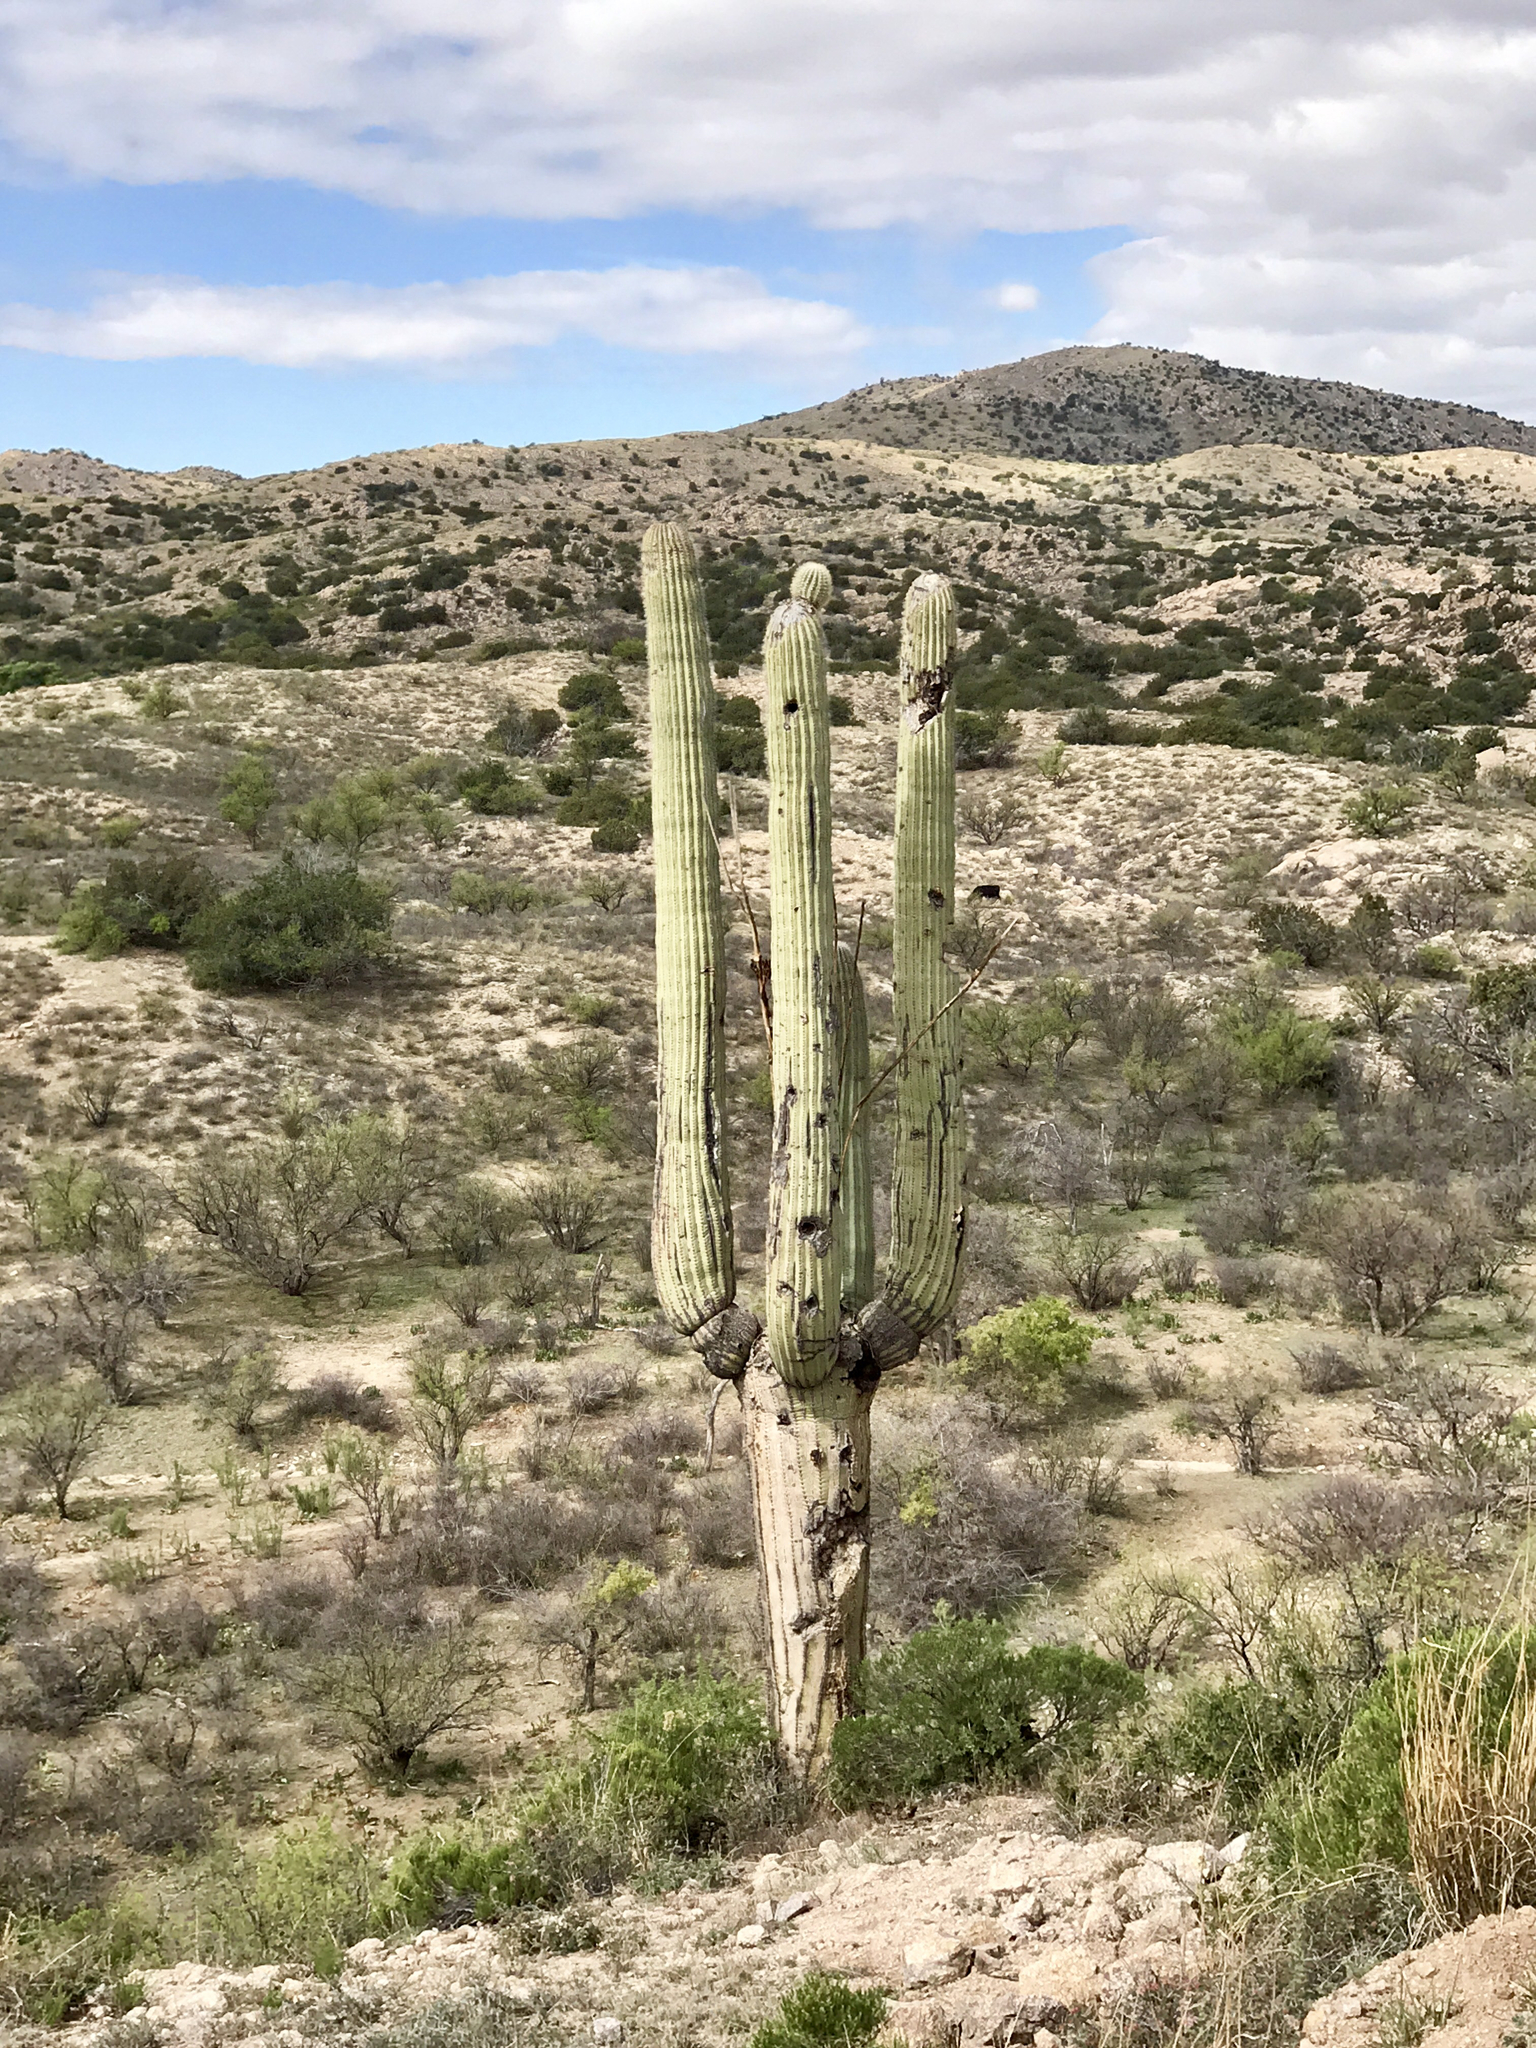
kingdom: Plantae
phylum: Tracheophyta
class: Magnoliopsida
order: Caryophyllales
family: Cactaceae
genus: Carnegiea
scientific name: Carnegiea gigantea
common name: Saguaro
